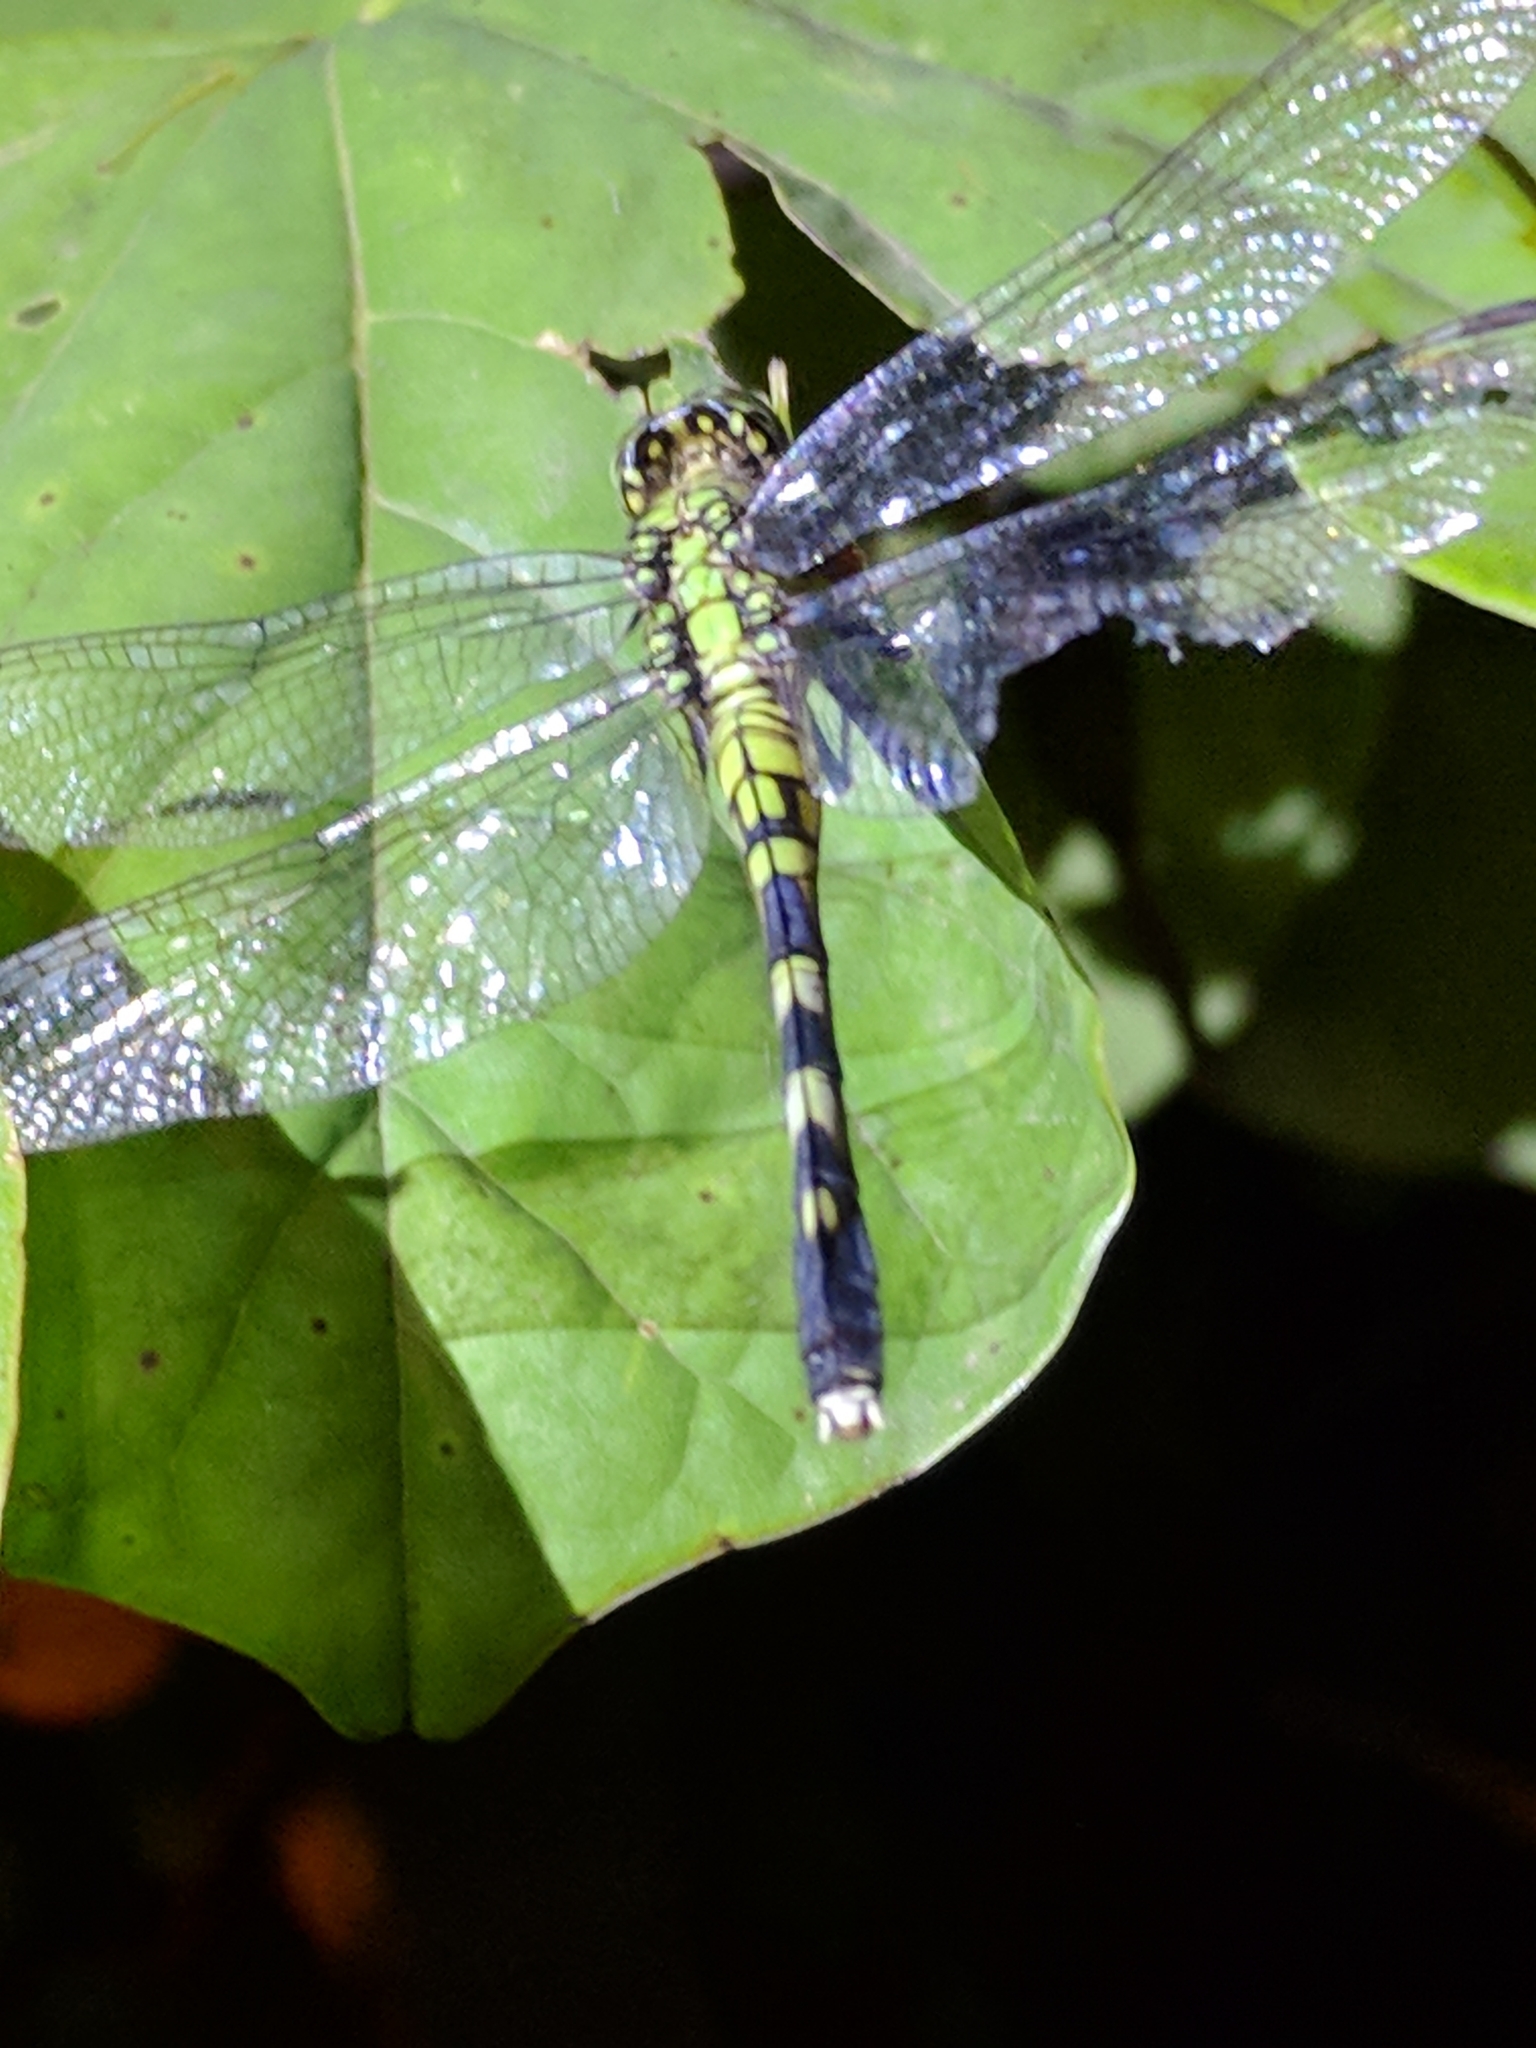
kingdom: Animalia
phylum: Arthropoda
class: Insecta
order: Odonata
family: Libellulidae
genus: Erythemis
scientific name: Erythemis simplicicollis
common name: Eastern pondhawk
